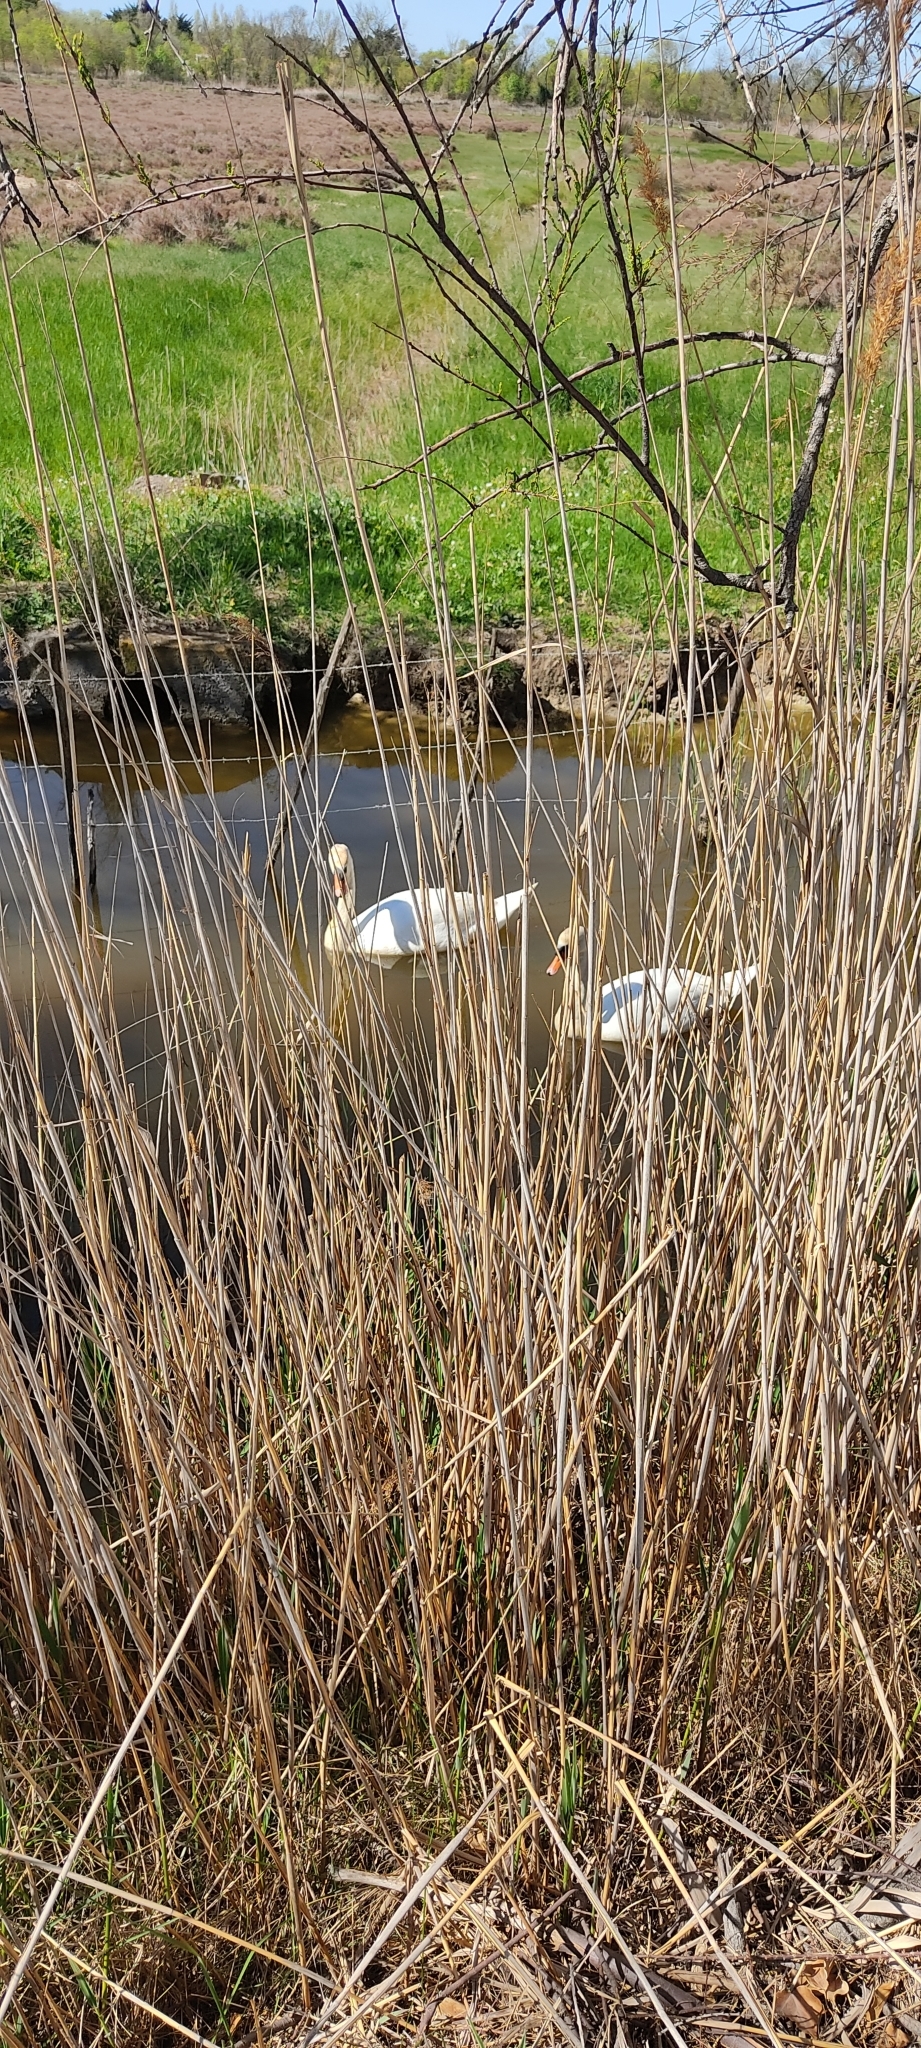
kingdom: Animalia
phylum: Chordata
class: Aves
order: Anseriformes
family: Anatidae
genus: Cygnus
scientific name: Cygnus olor
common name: Mute swan
